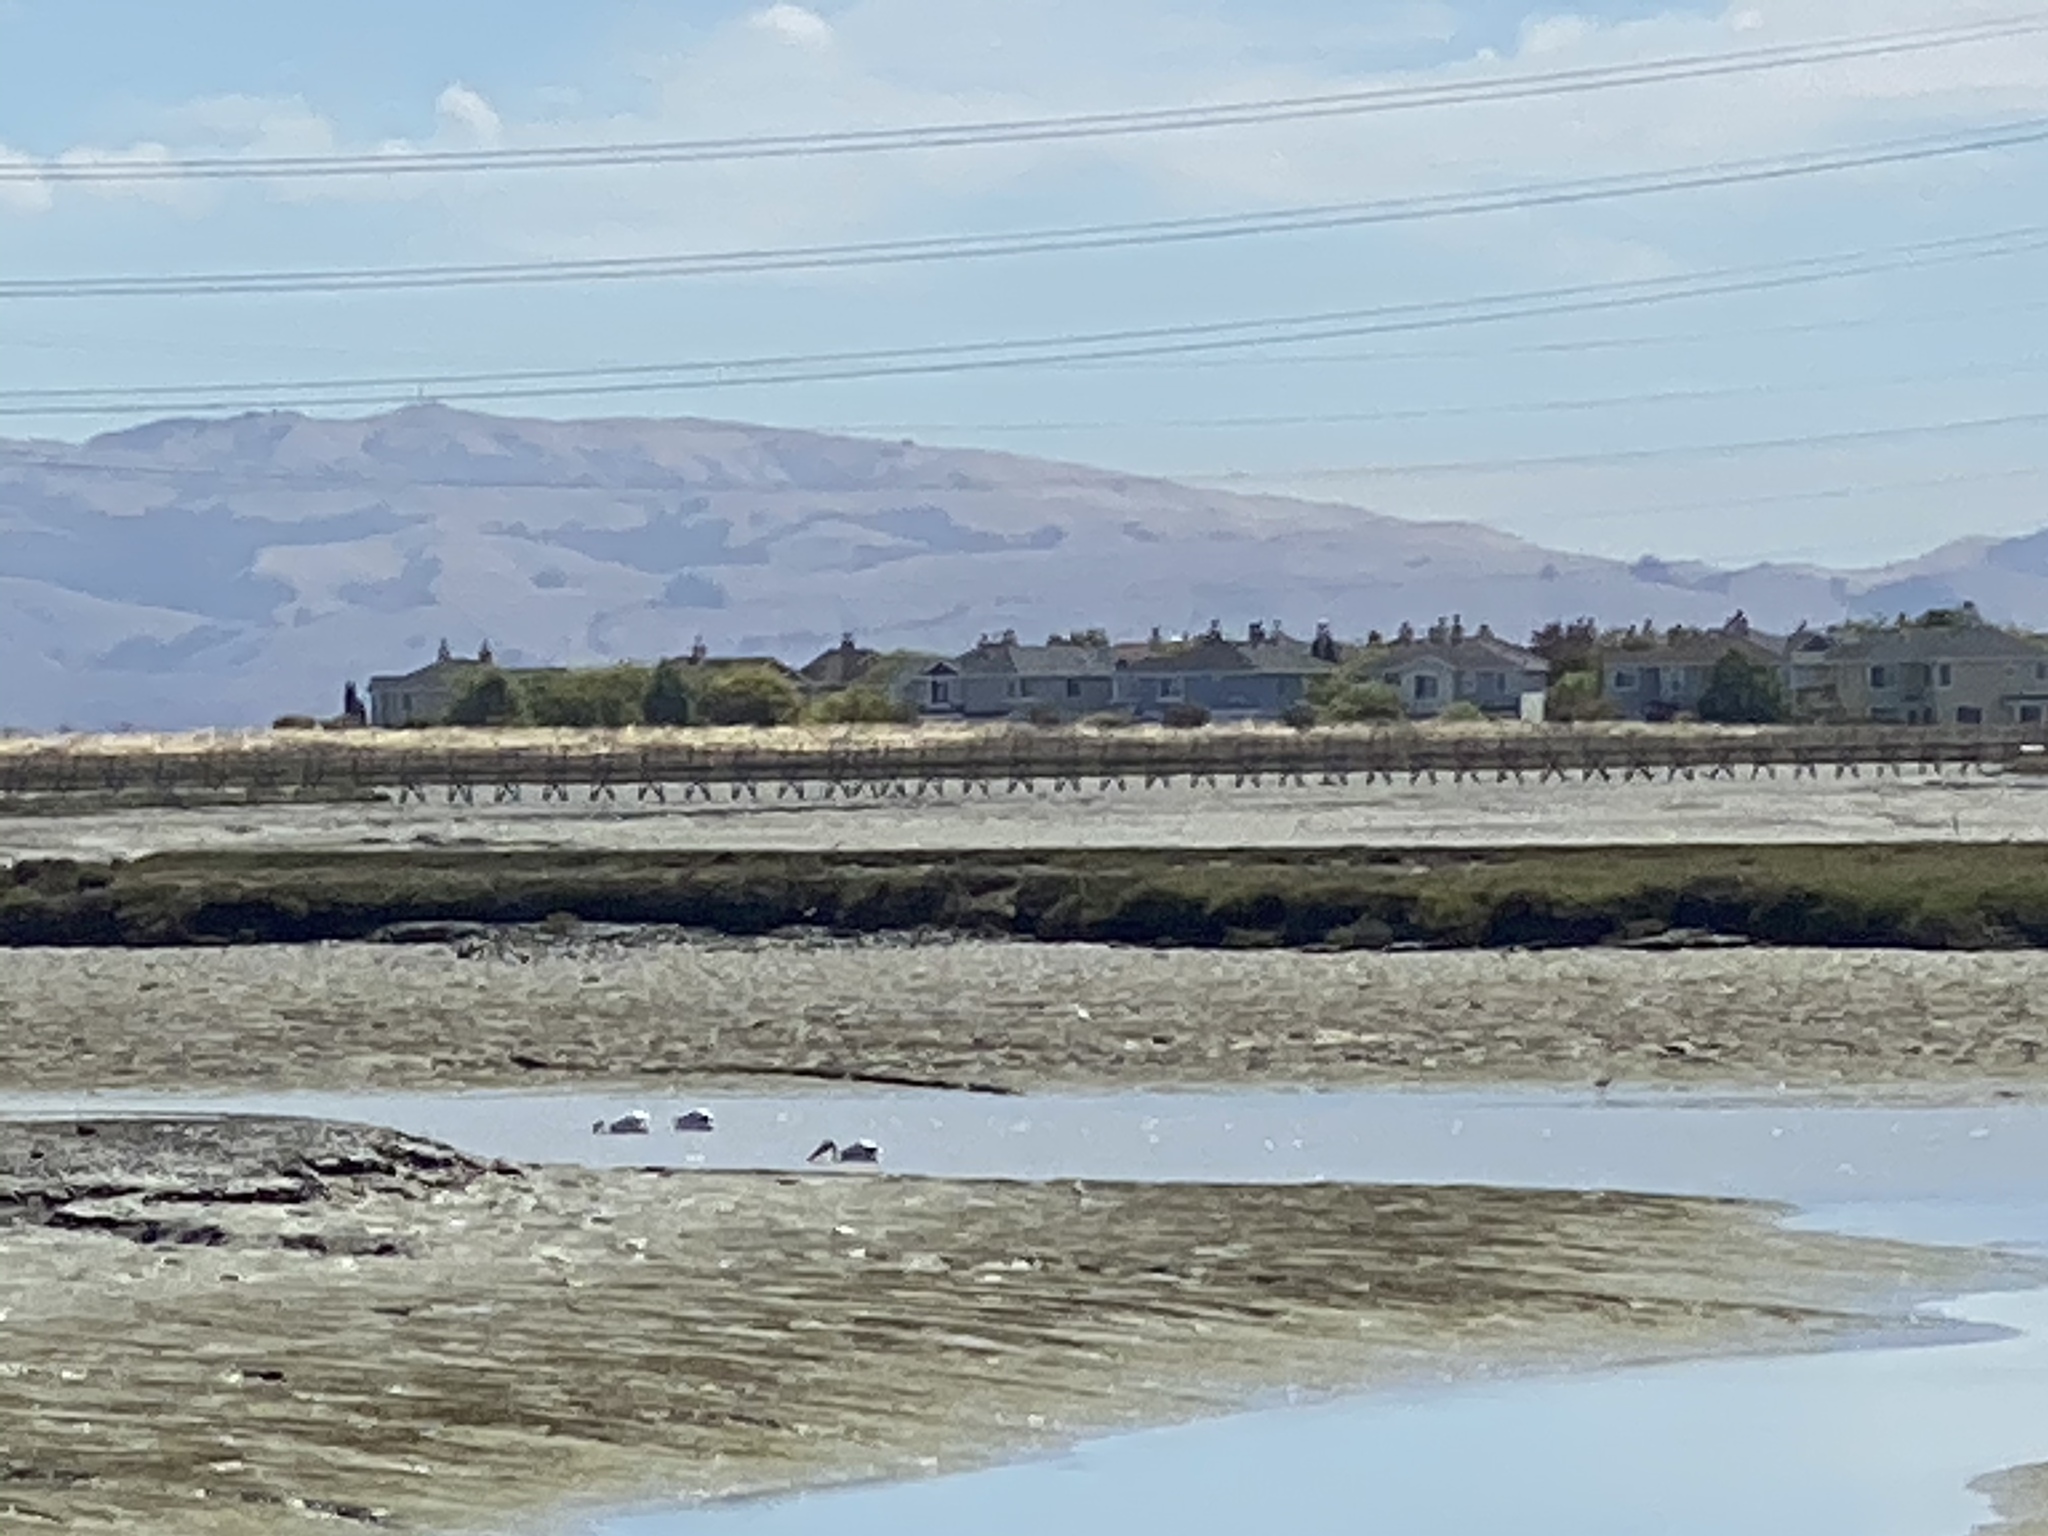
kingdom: Animalia
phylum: Chordata
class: Aves
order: Pelecaniformes
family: Pelecanidae
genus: Pelecanus
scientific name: Pelecanus erythrorhynchos
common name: American white pelican
